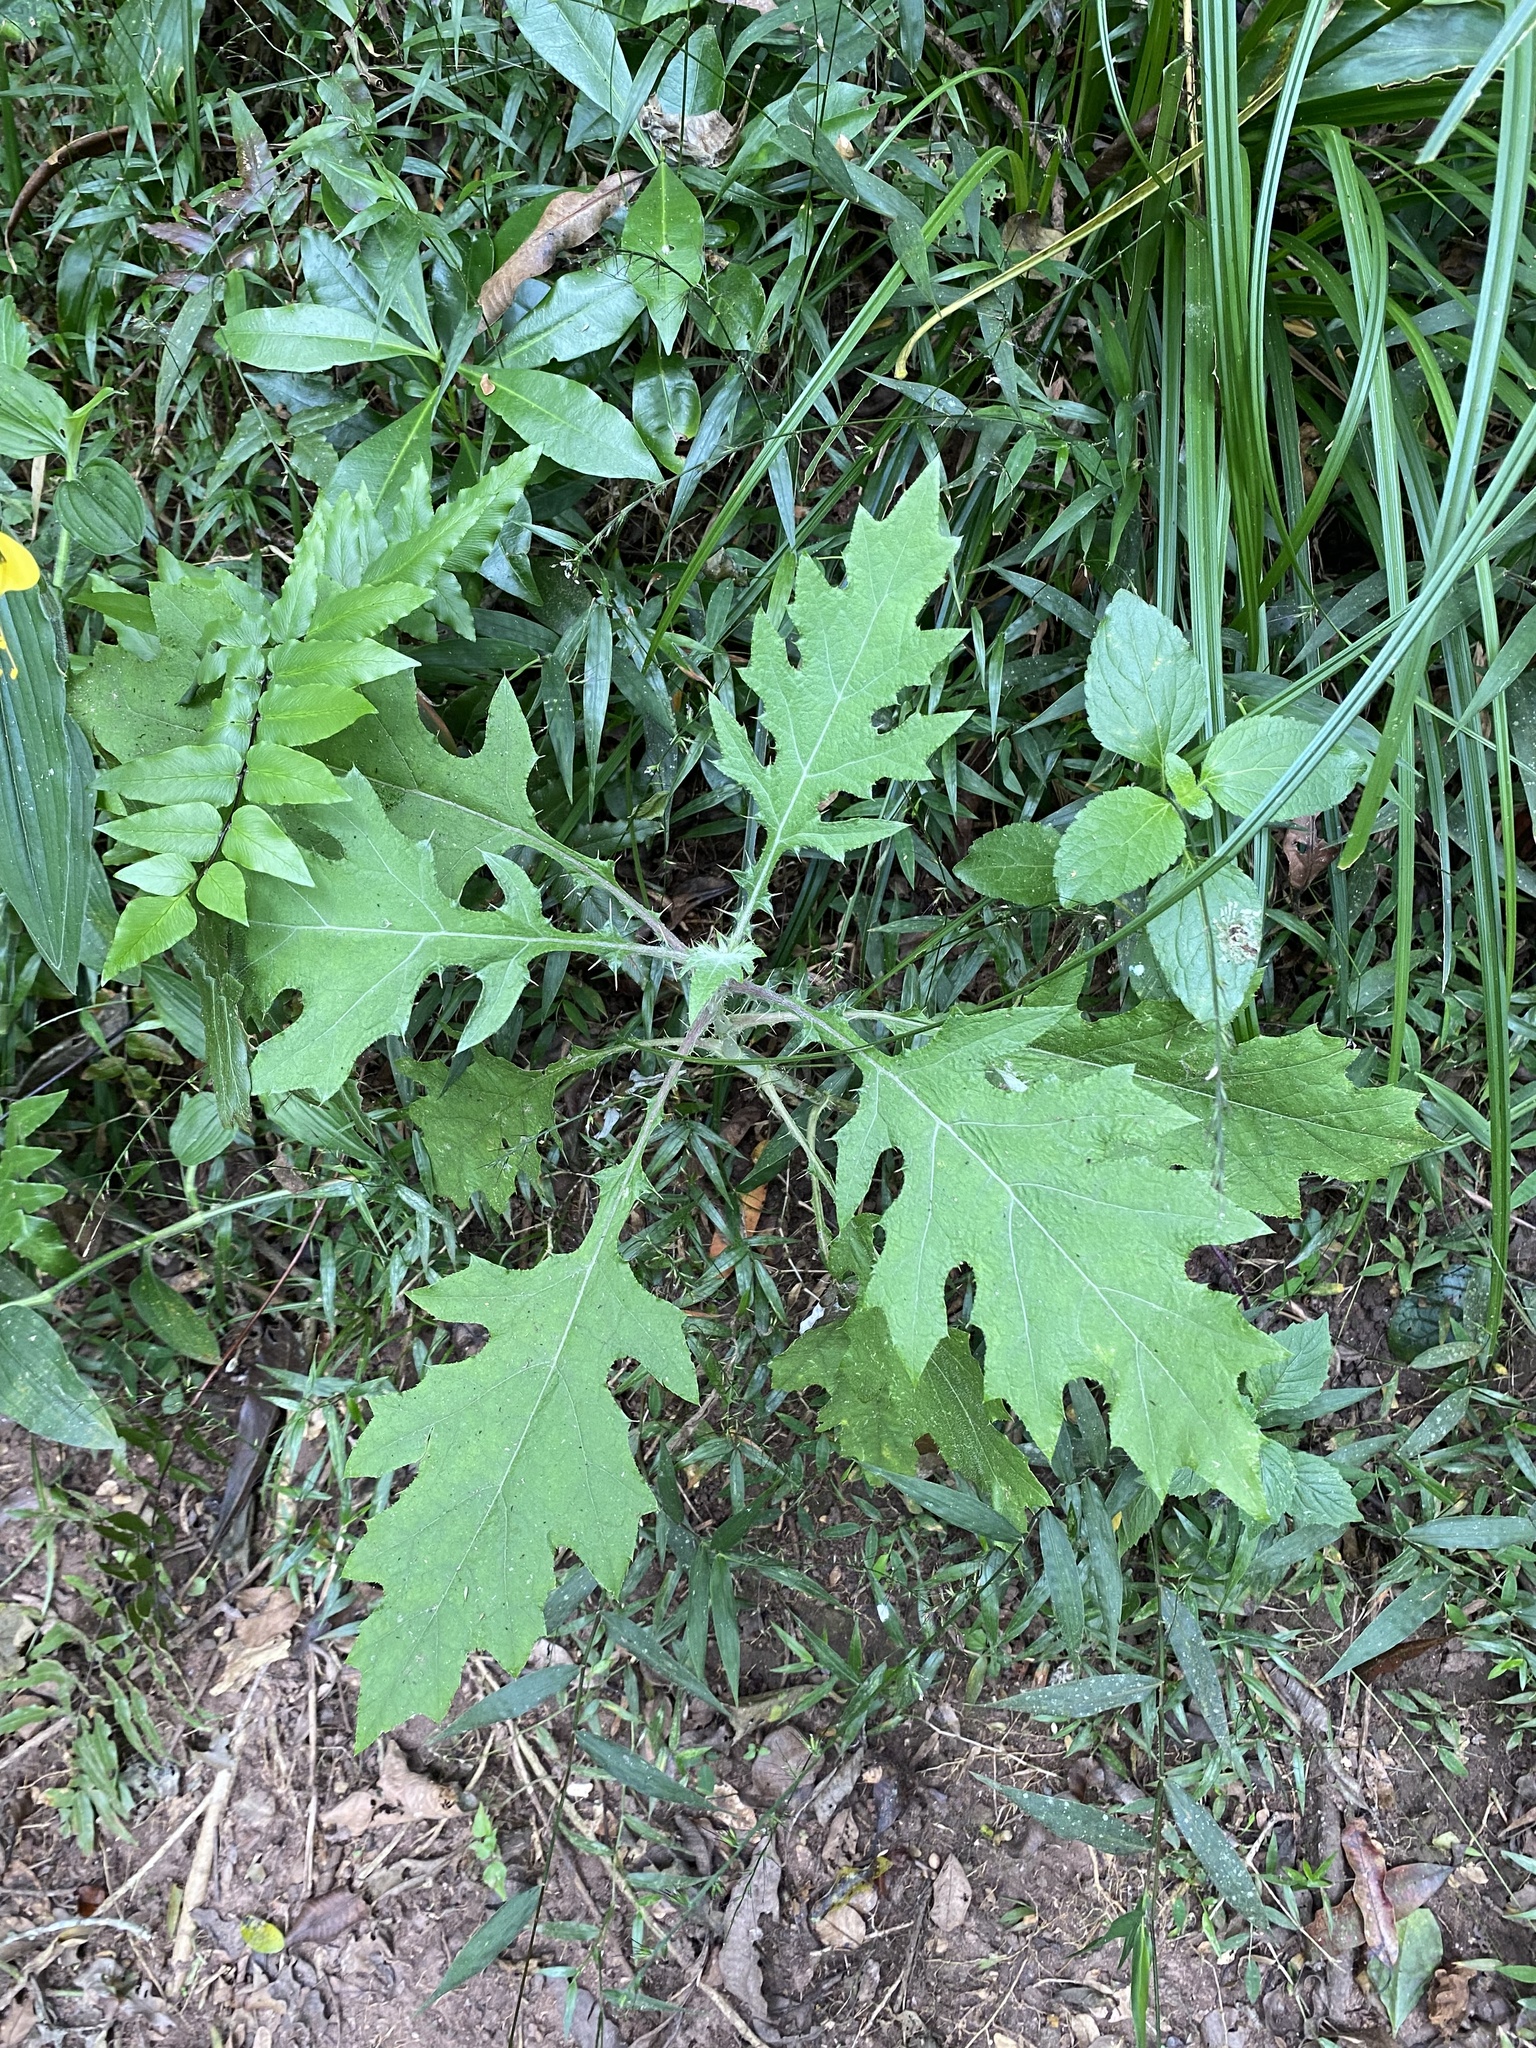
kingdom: Plantae
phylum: Tracheophyta
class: Magnoliopsida
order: Asterales
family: Asteraceae
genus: Berkheya
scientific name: Berkheya bipinnatifida
